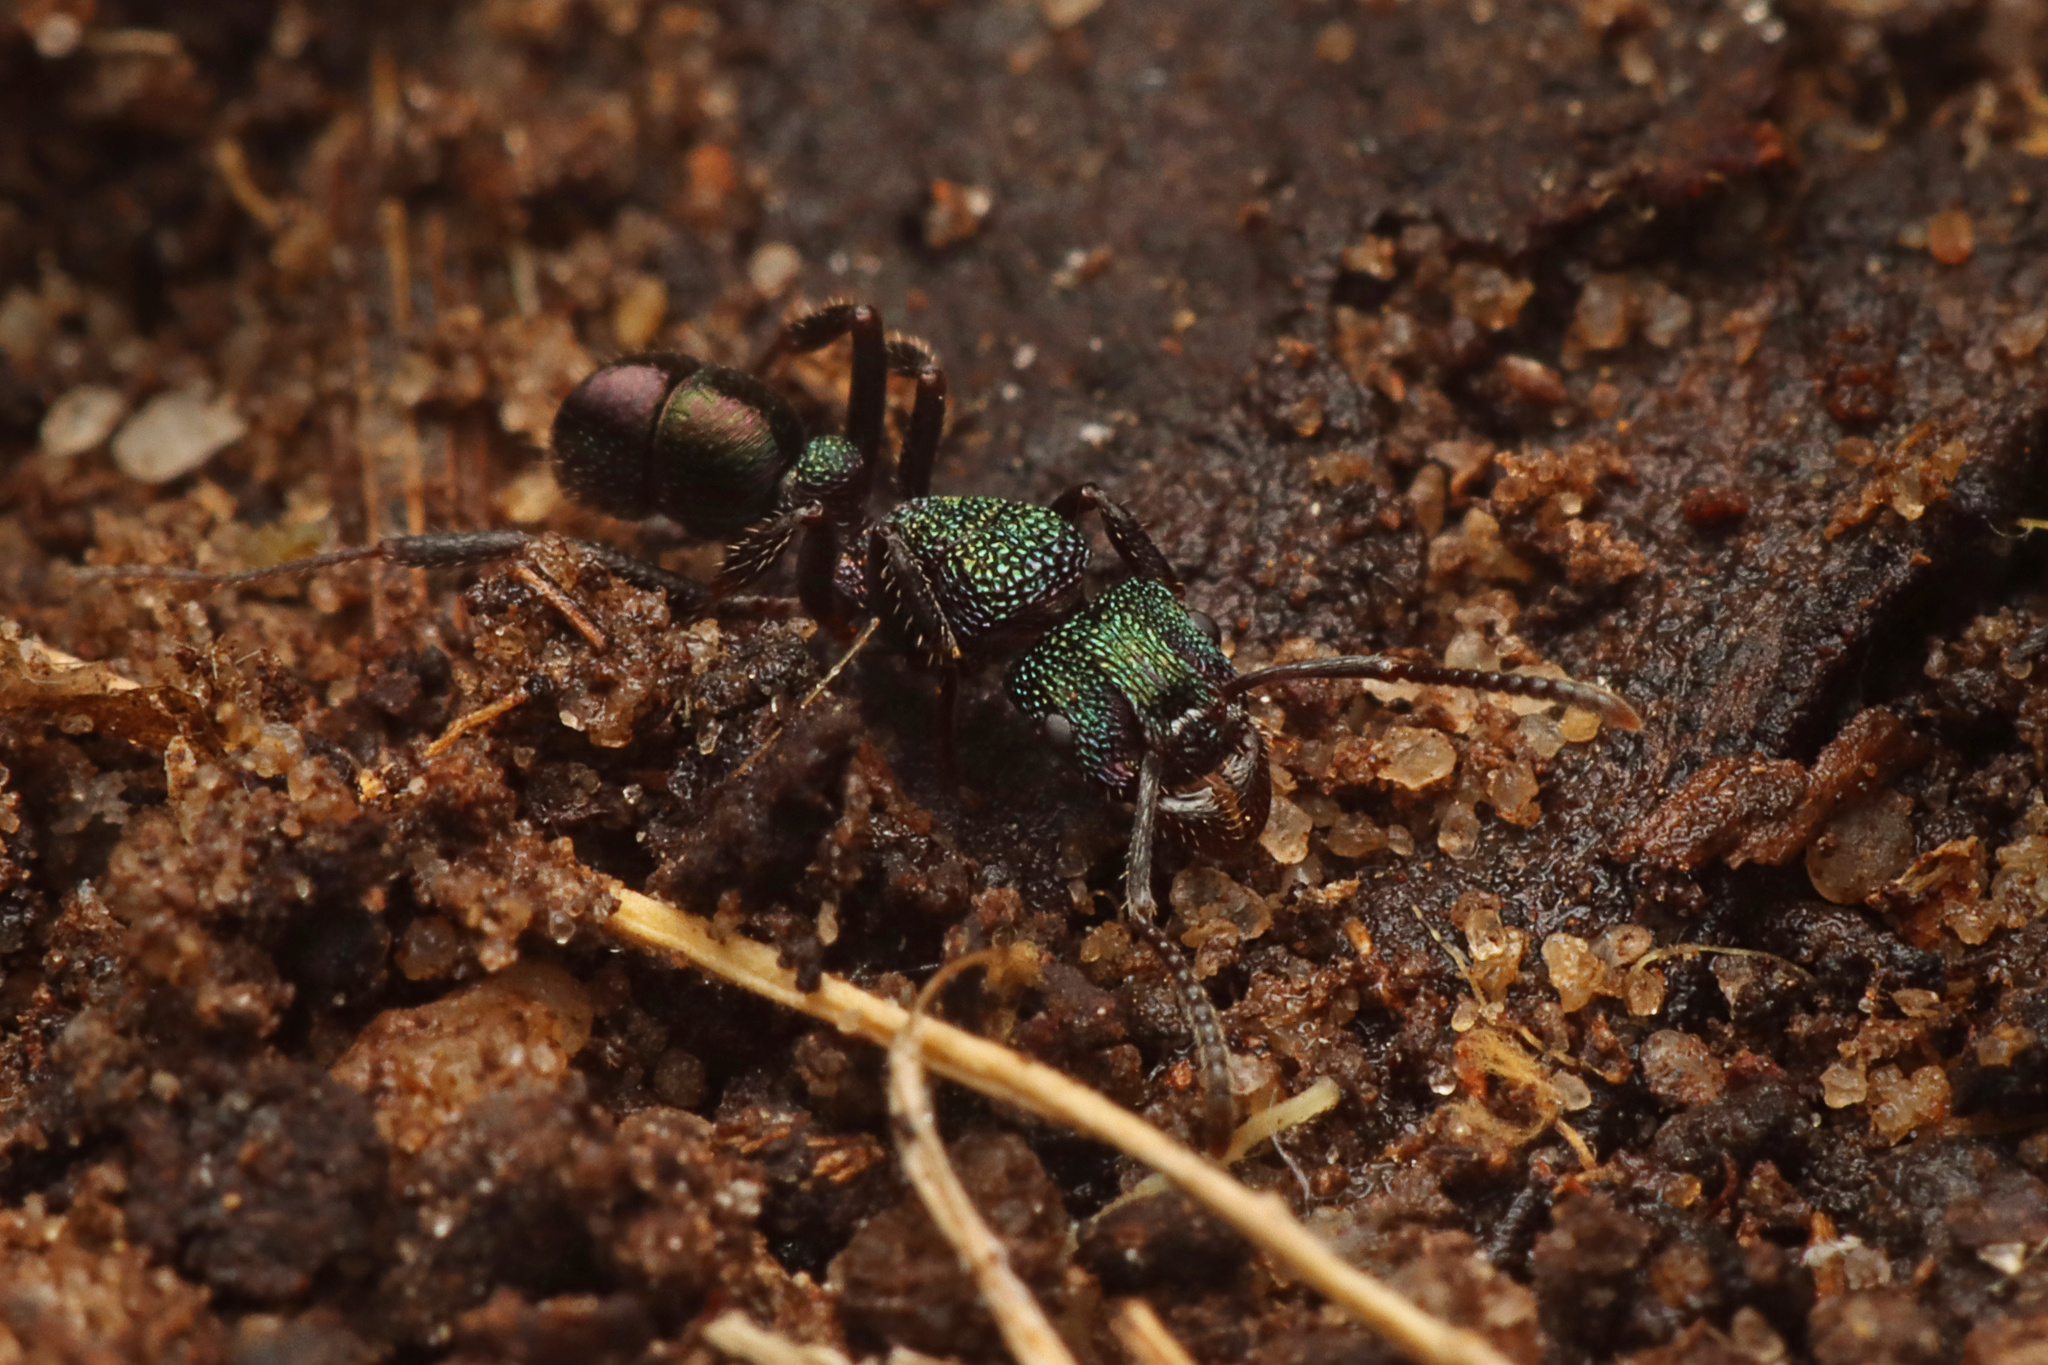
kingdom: Animalia
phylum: Arthropoda
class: Insecta
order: Hymenoptera
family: Formicidae
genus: Rhytidoponera
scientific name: Rhytidoponera metallica
